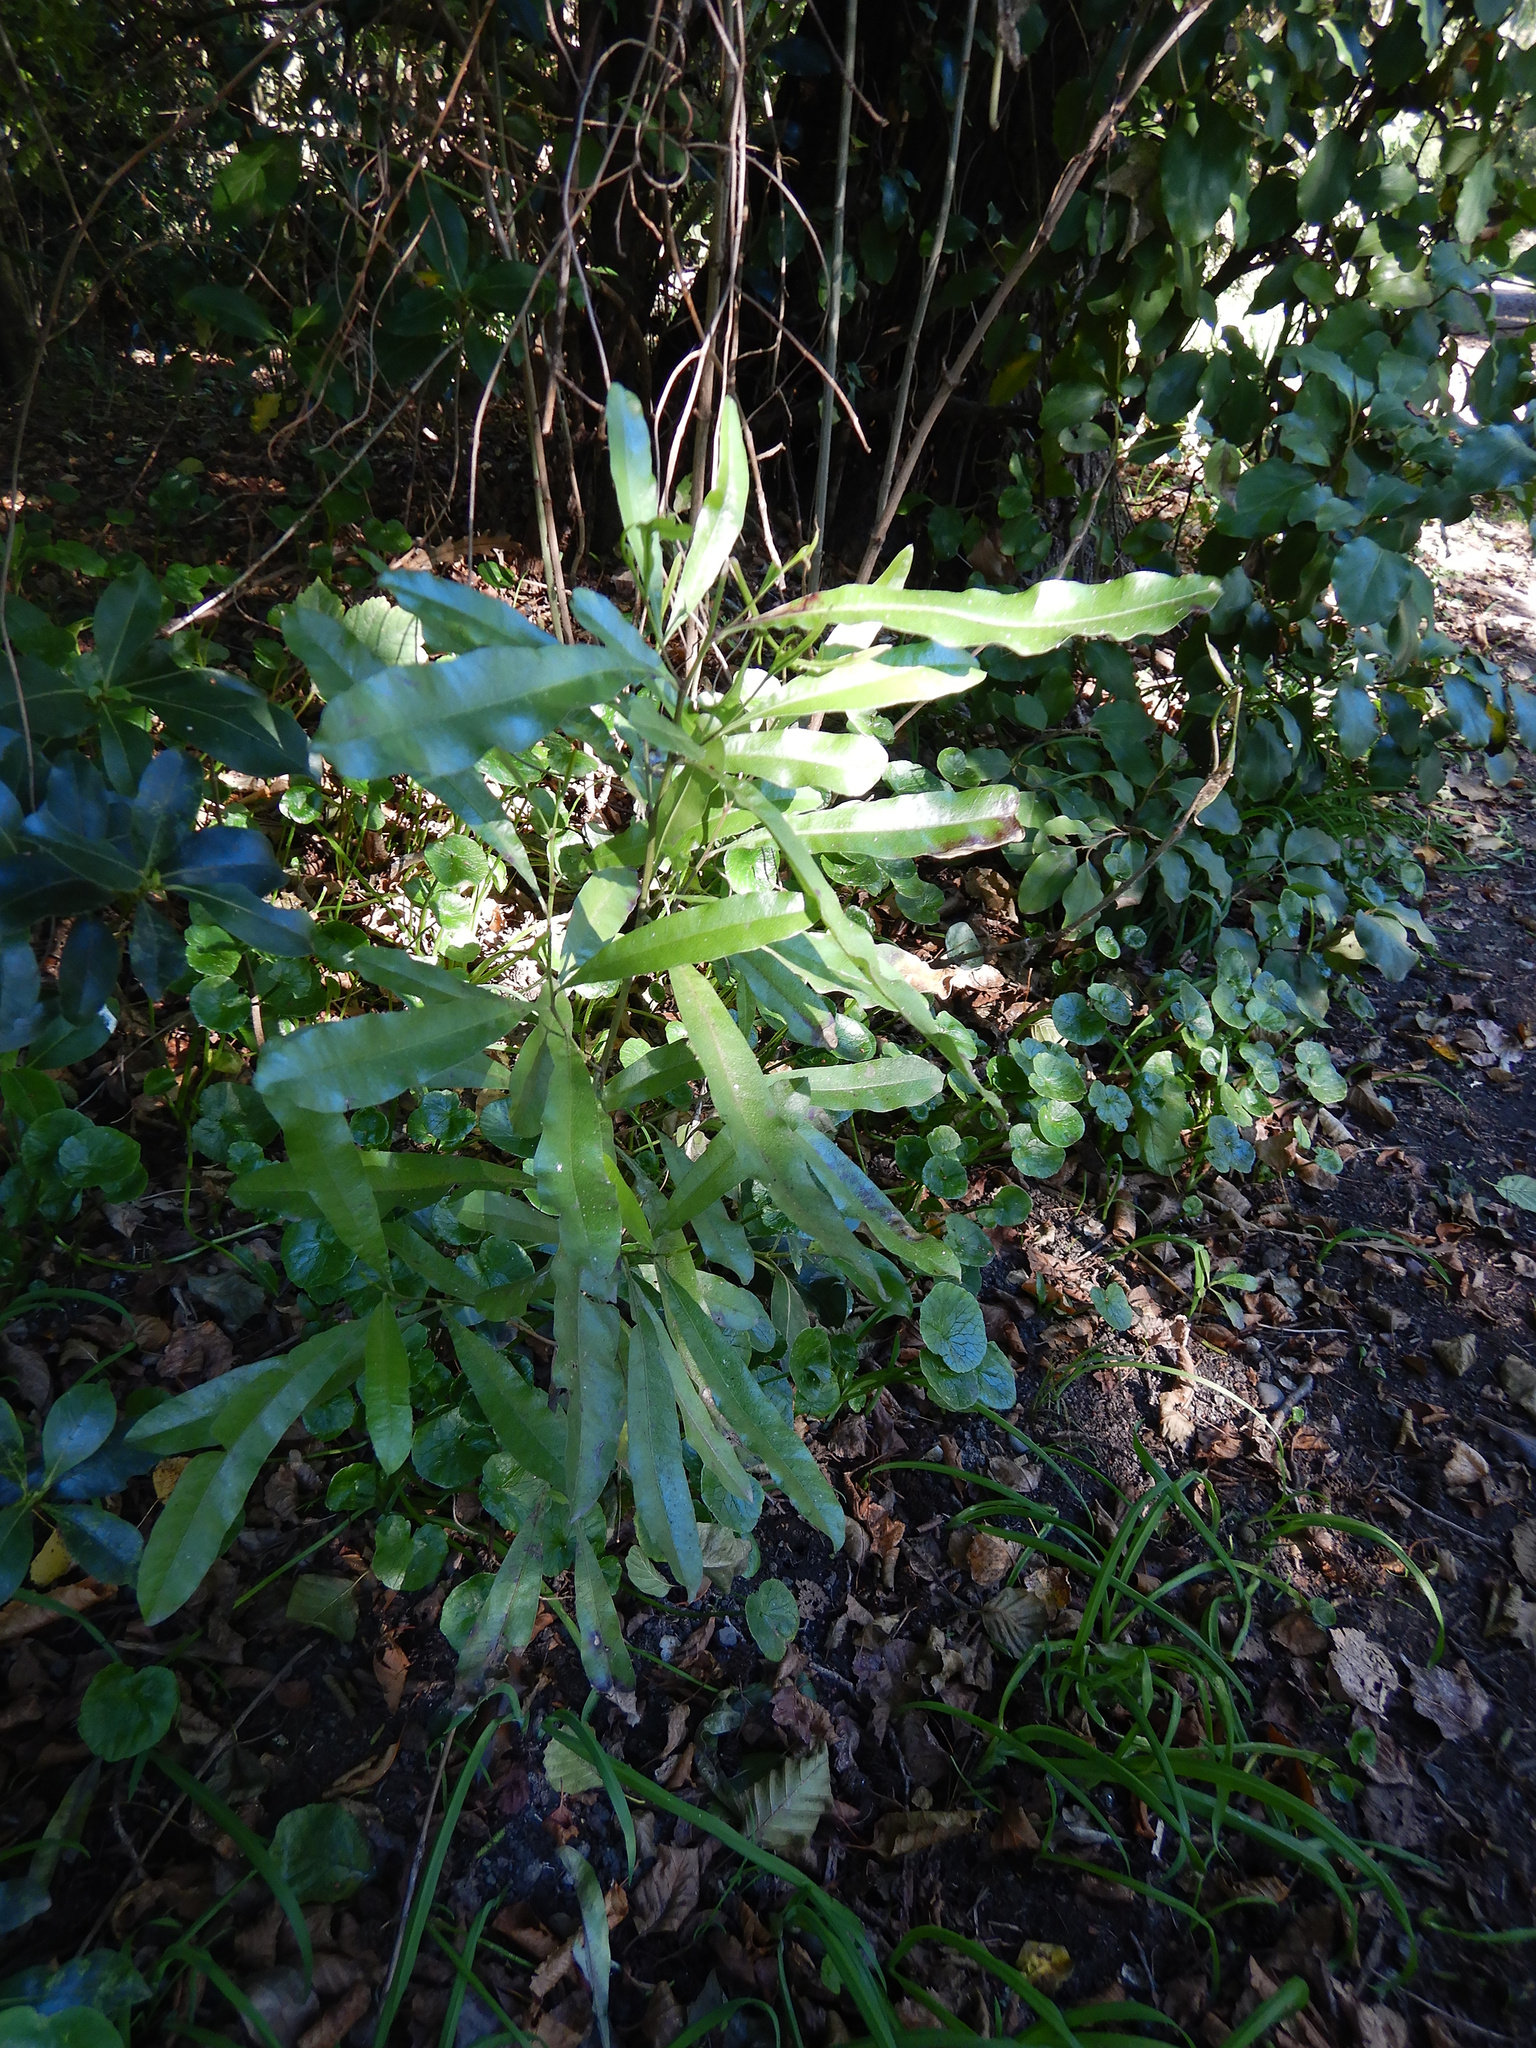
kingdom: Plantae
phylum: Tracheophyta
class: Magnoliopsida
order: Sapindales
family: Sapindaceae
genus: Dodonaea
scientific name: Dodonaea viscosa
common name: Hopbush
